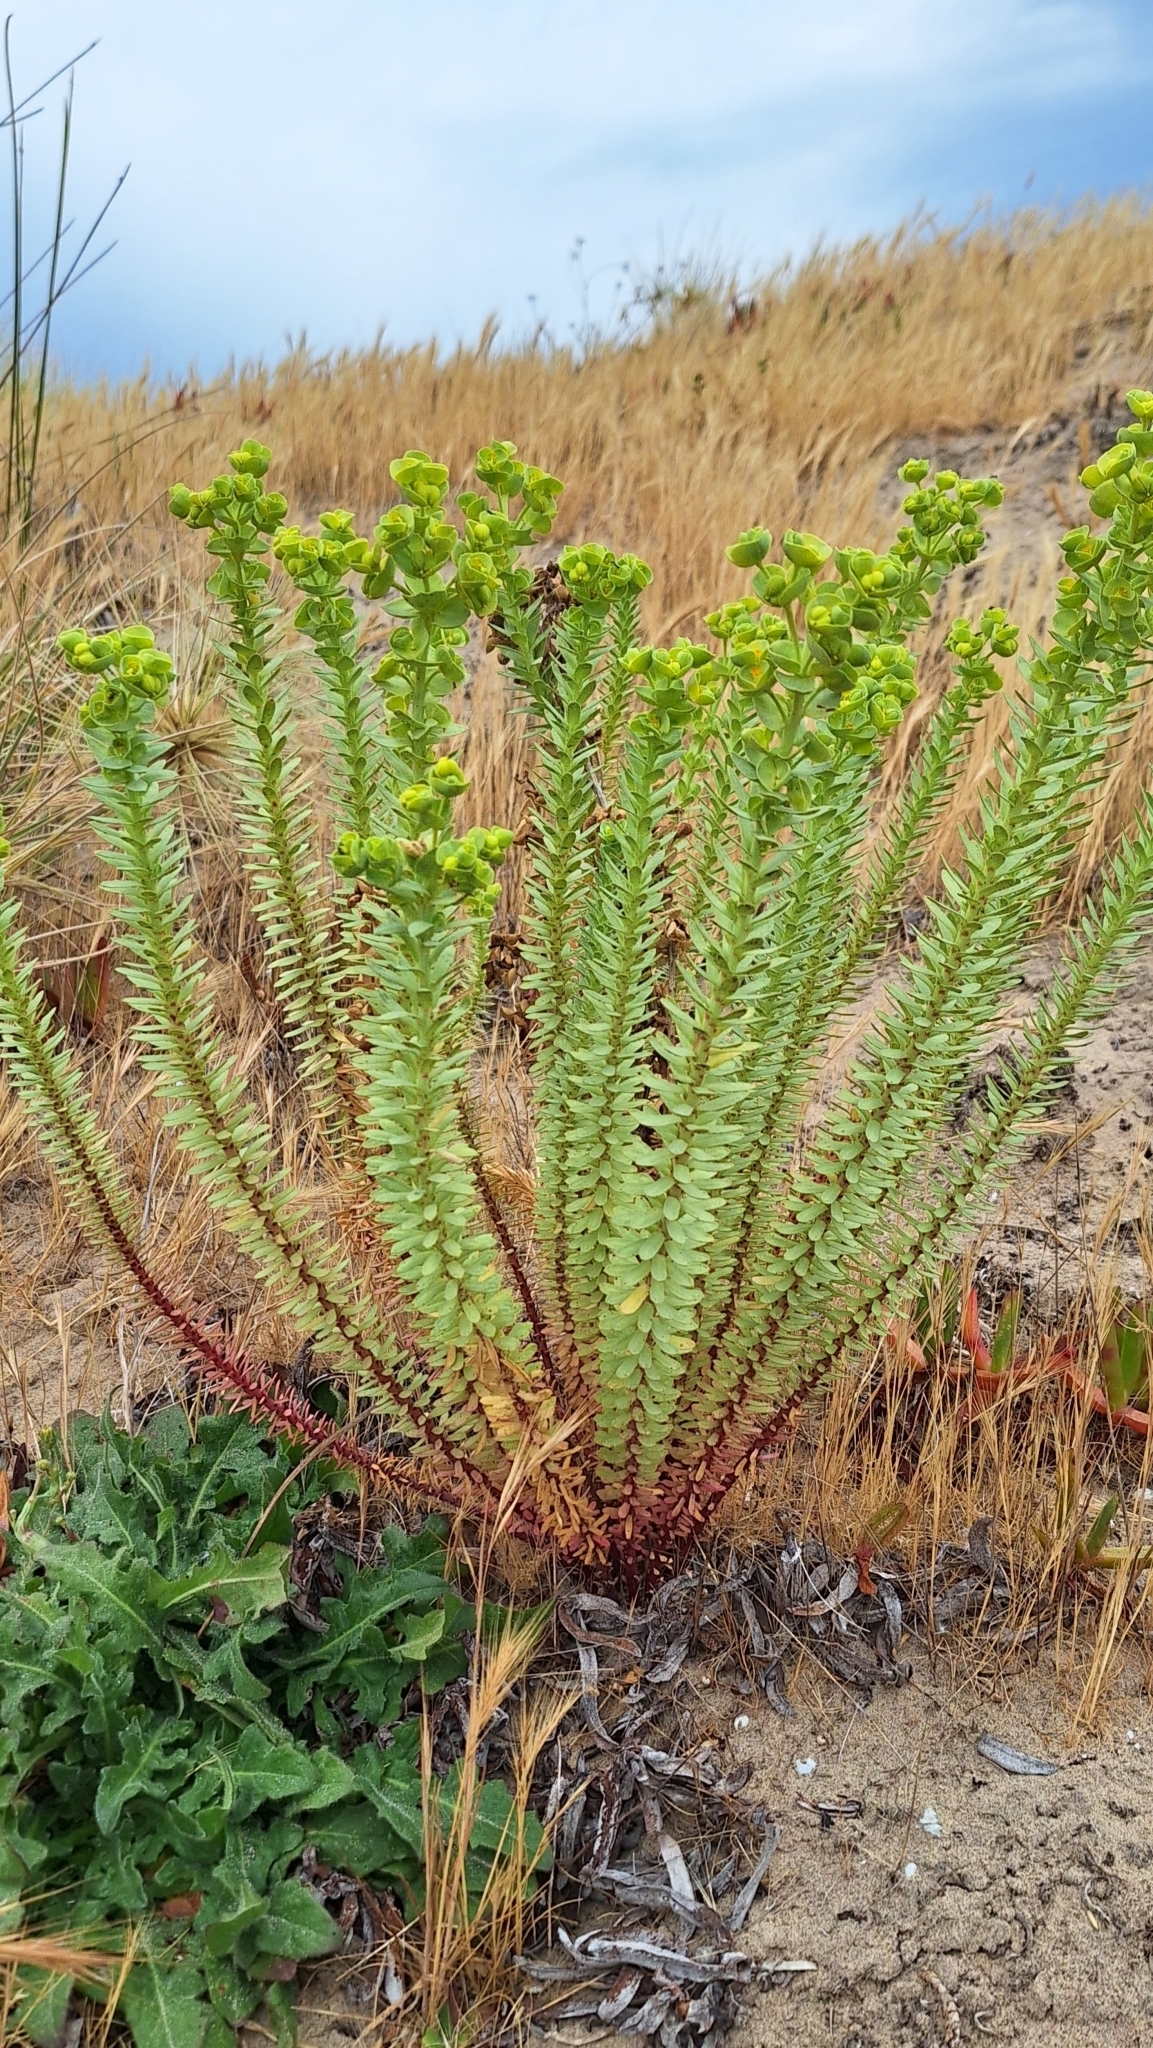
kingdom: Plantae
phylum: Tracheophyta
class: Magnoliopsida
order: Malpighiales
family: Euphorbiaceae
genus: Euphorbia
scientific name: Euphorbia paralias
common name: Sea spurge
